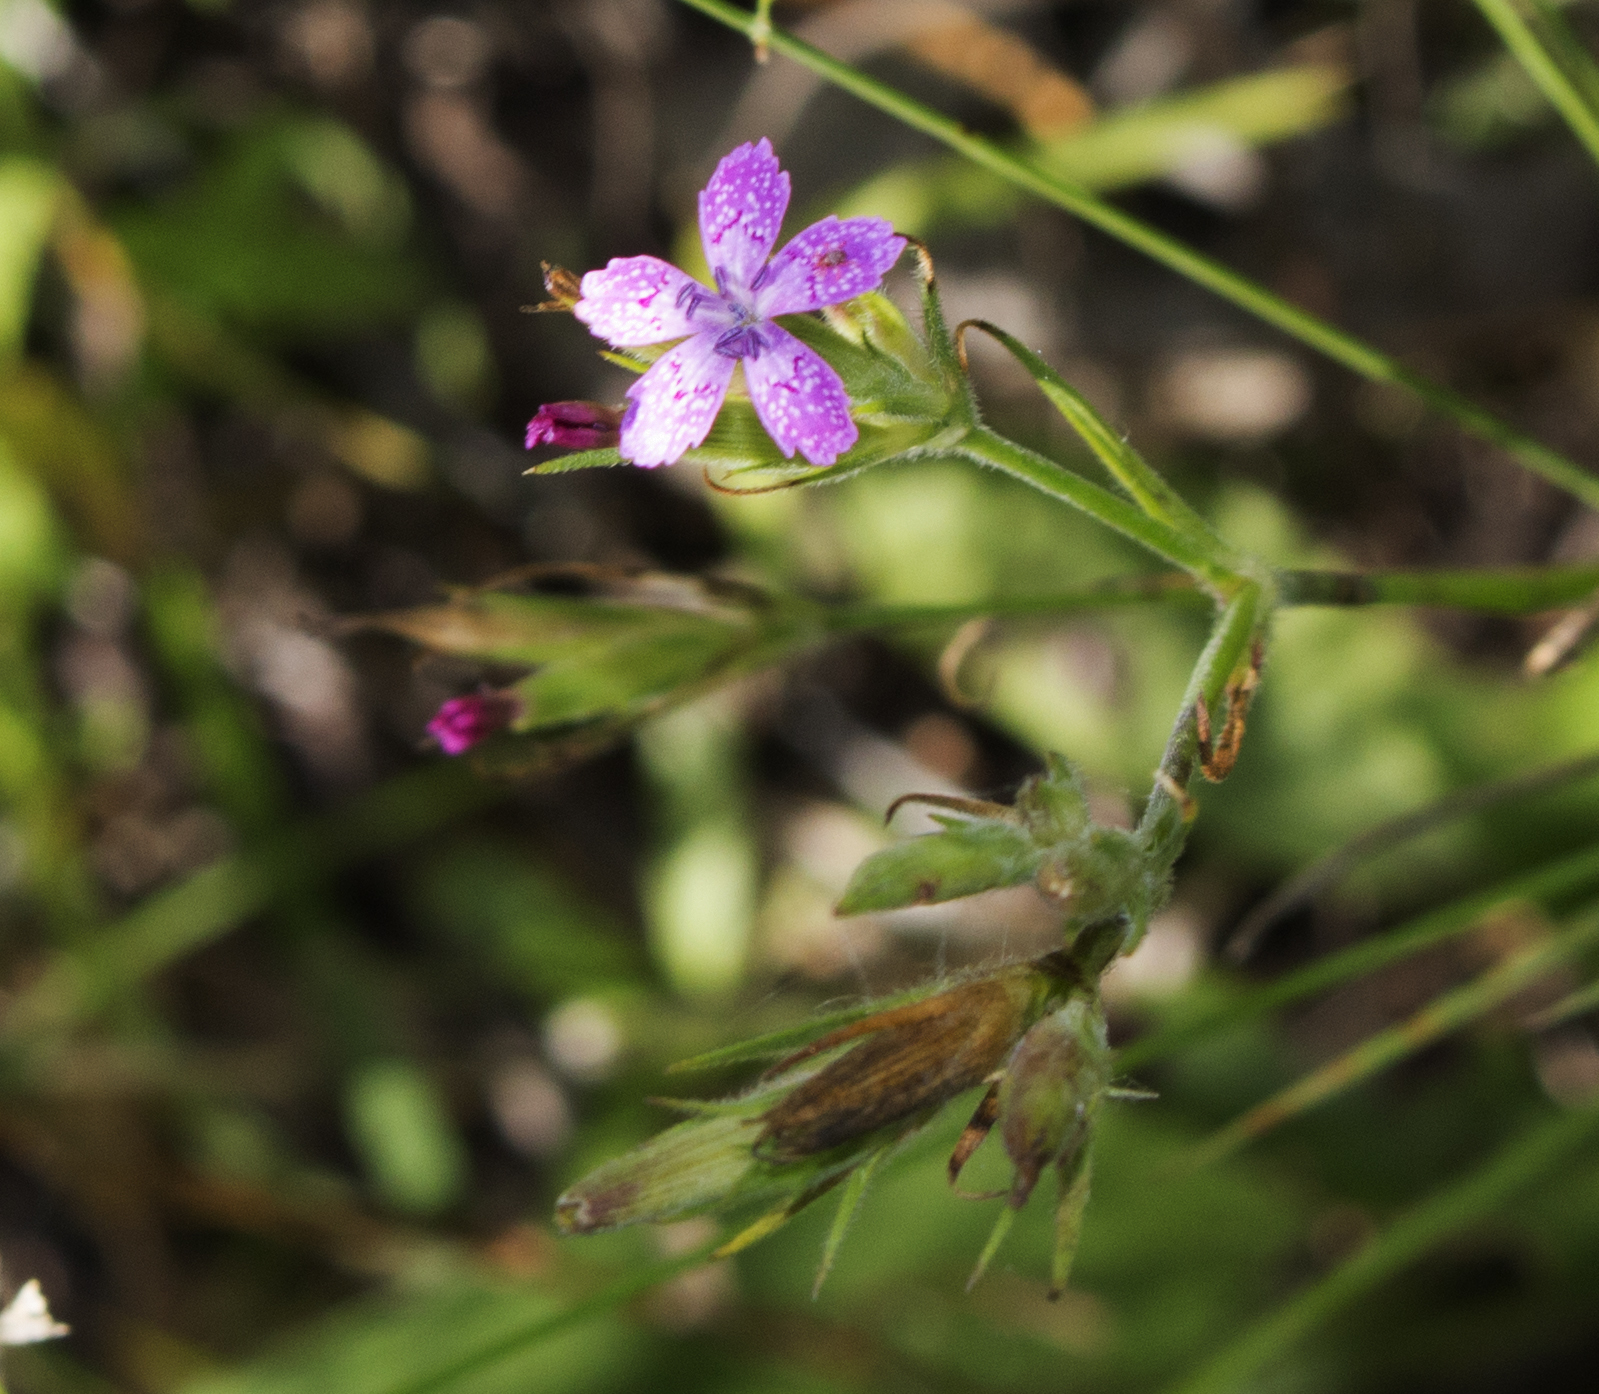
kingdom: Plantae
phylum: Tracheophyta
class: Magnoliopsida
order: Caryophyllales
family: Caryophyllaceae
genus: Dianthus
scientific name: Dianthus armeria
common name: Deptford pink
